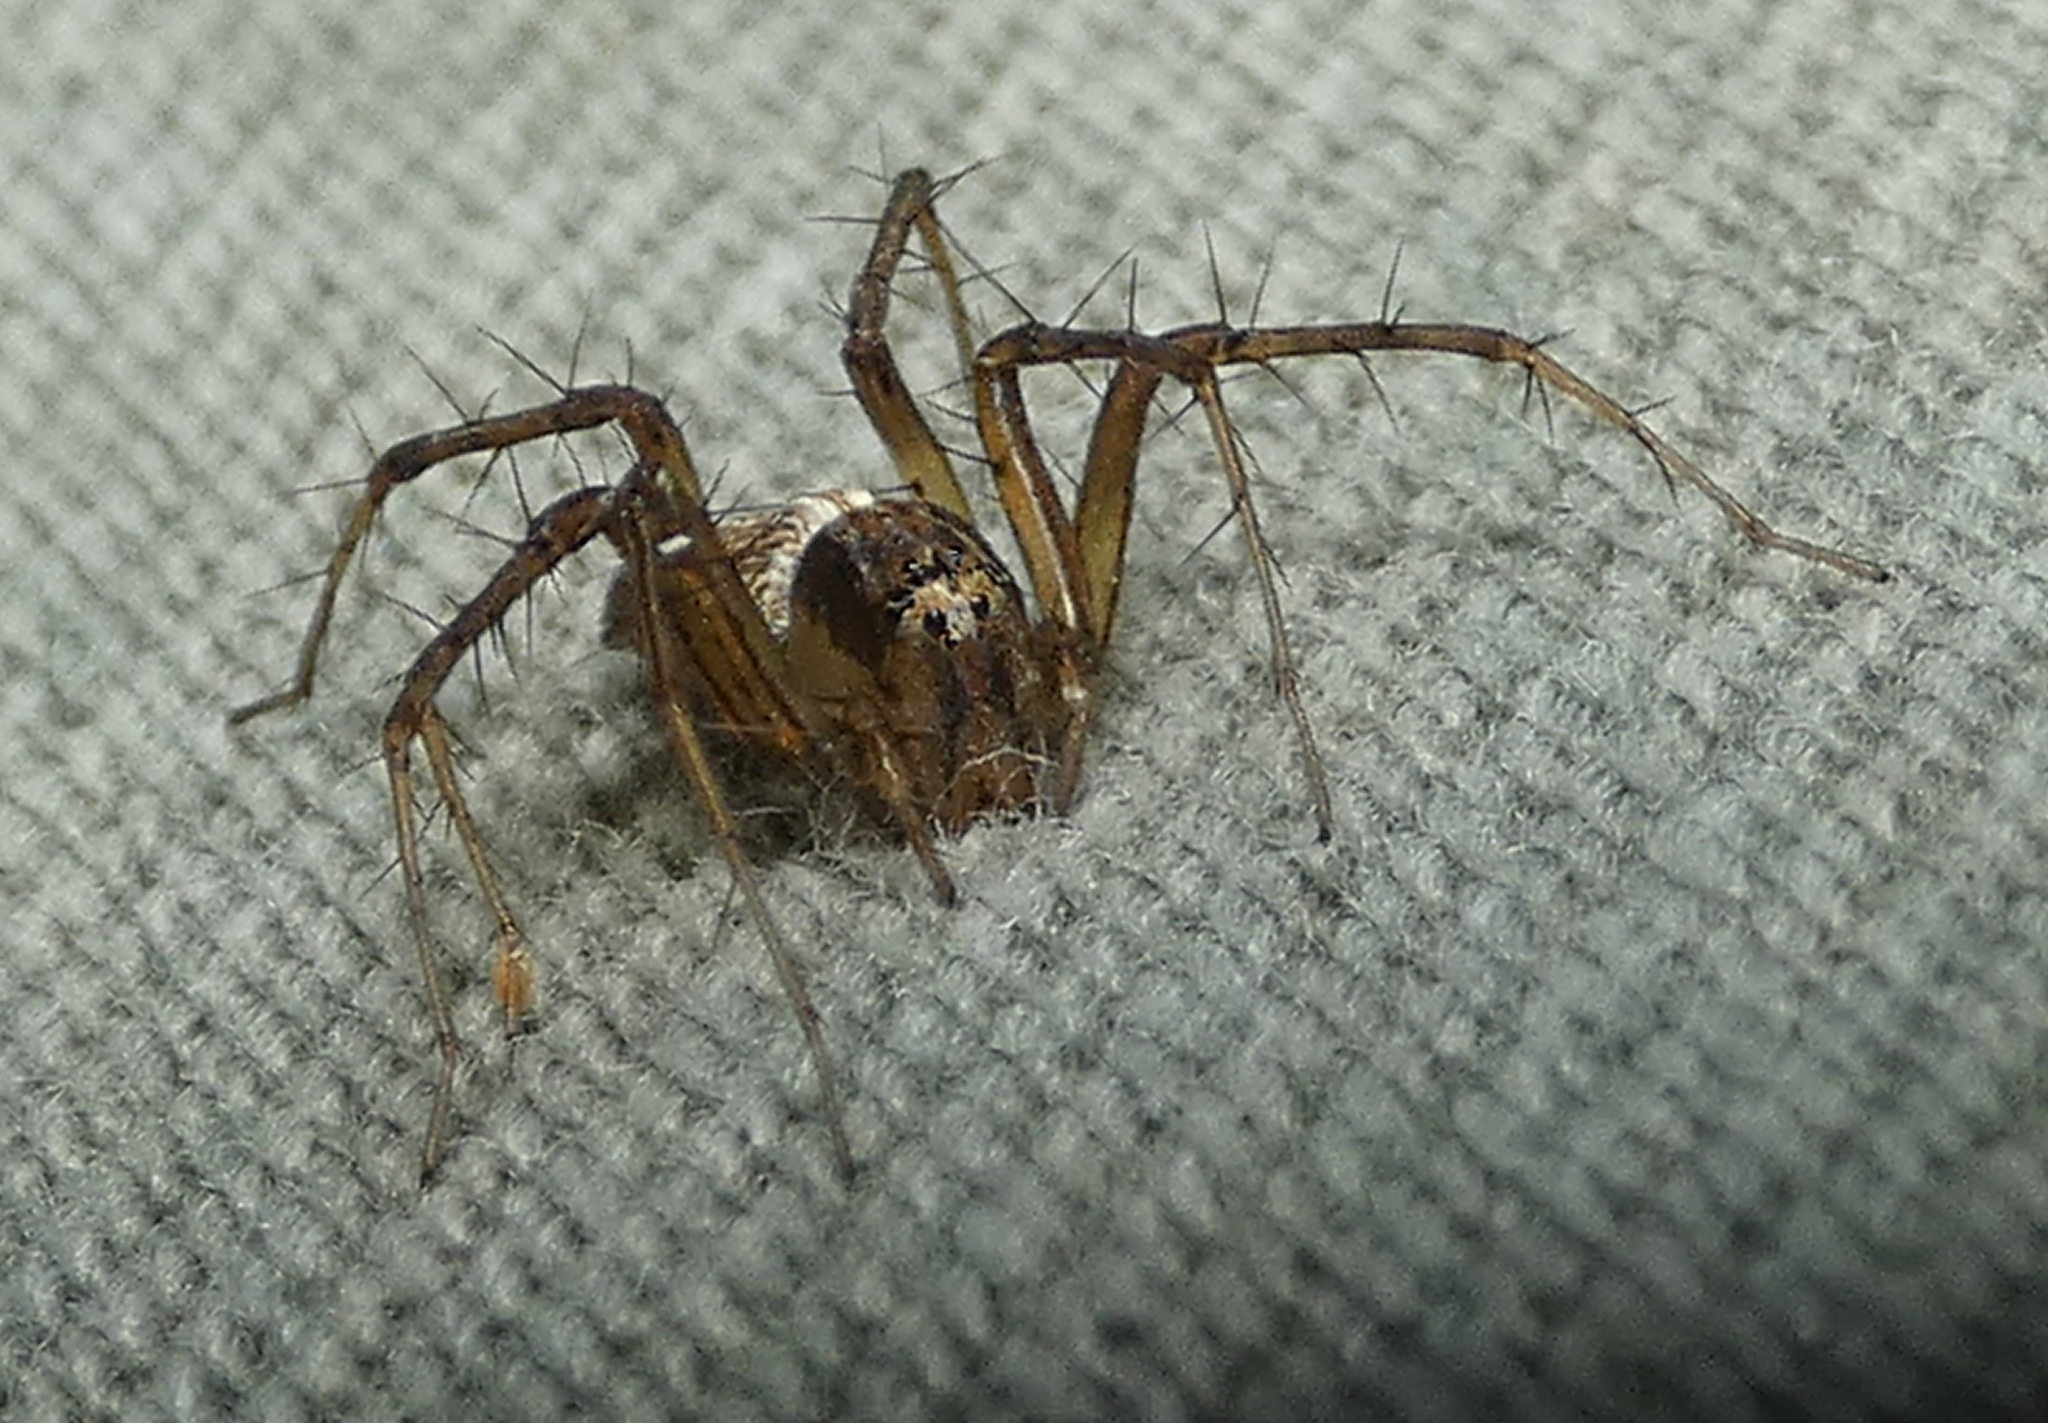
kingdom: Animalia
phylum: Arthropoda
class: Arachnida
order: Araneae
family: Oxyopidae
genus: Oxyopes
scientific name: Oxyopes salticus
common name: Lynx spiders
